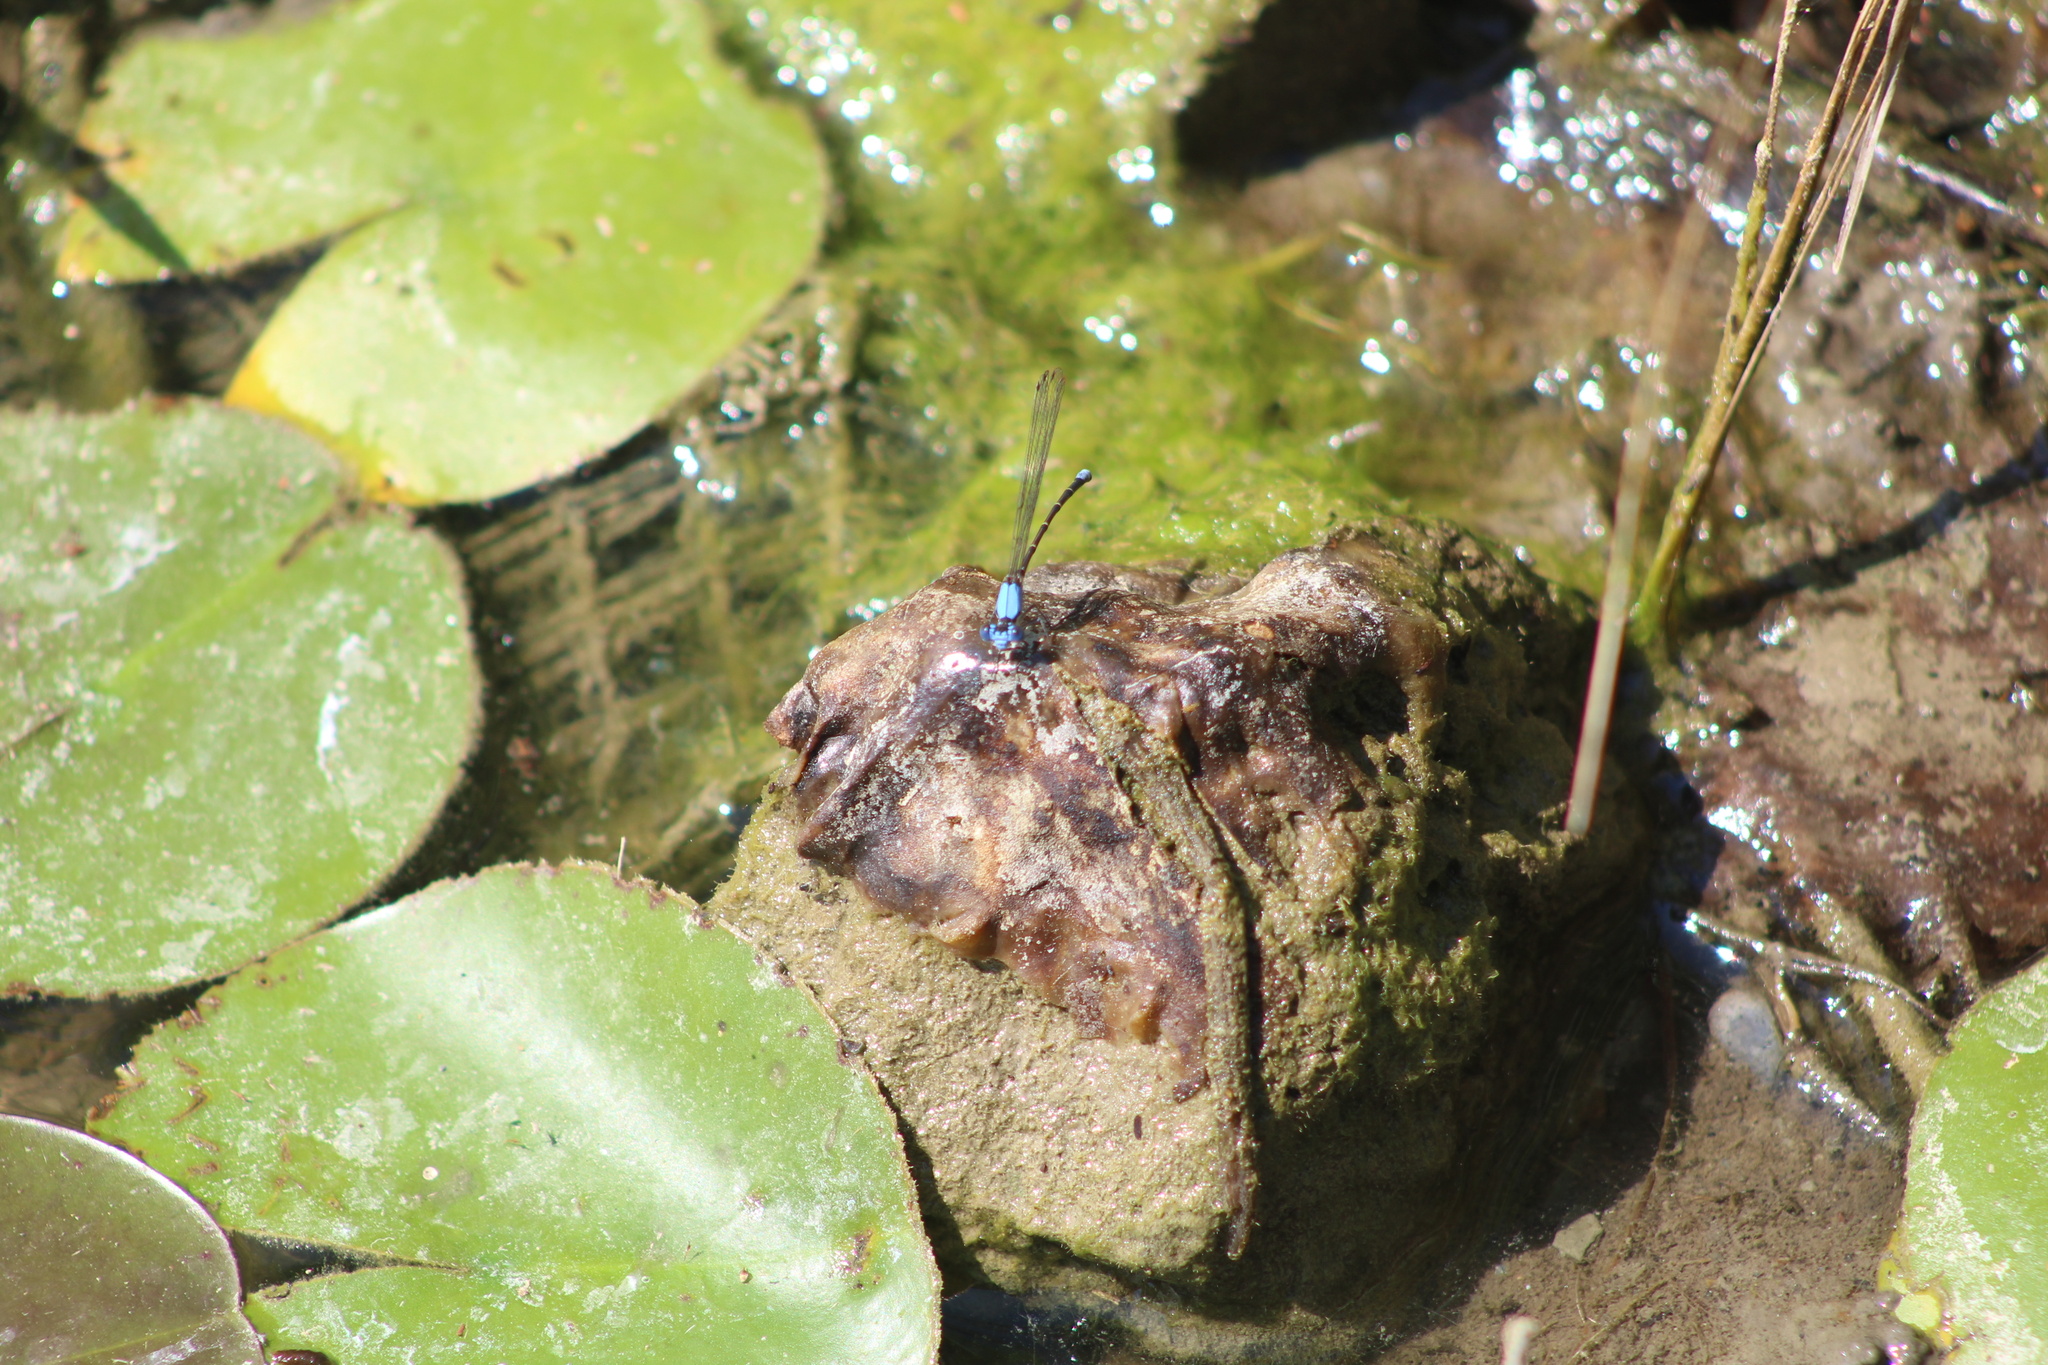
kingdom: Animalia
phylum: Arthropoda
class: Insecta
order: Odonata
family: Coenagrionidae
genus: Argia
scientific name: Argia apicalis
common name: Blue-fronted dancer
